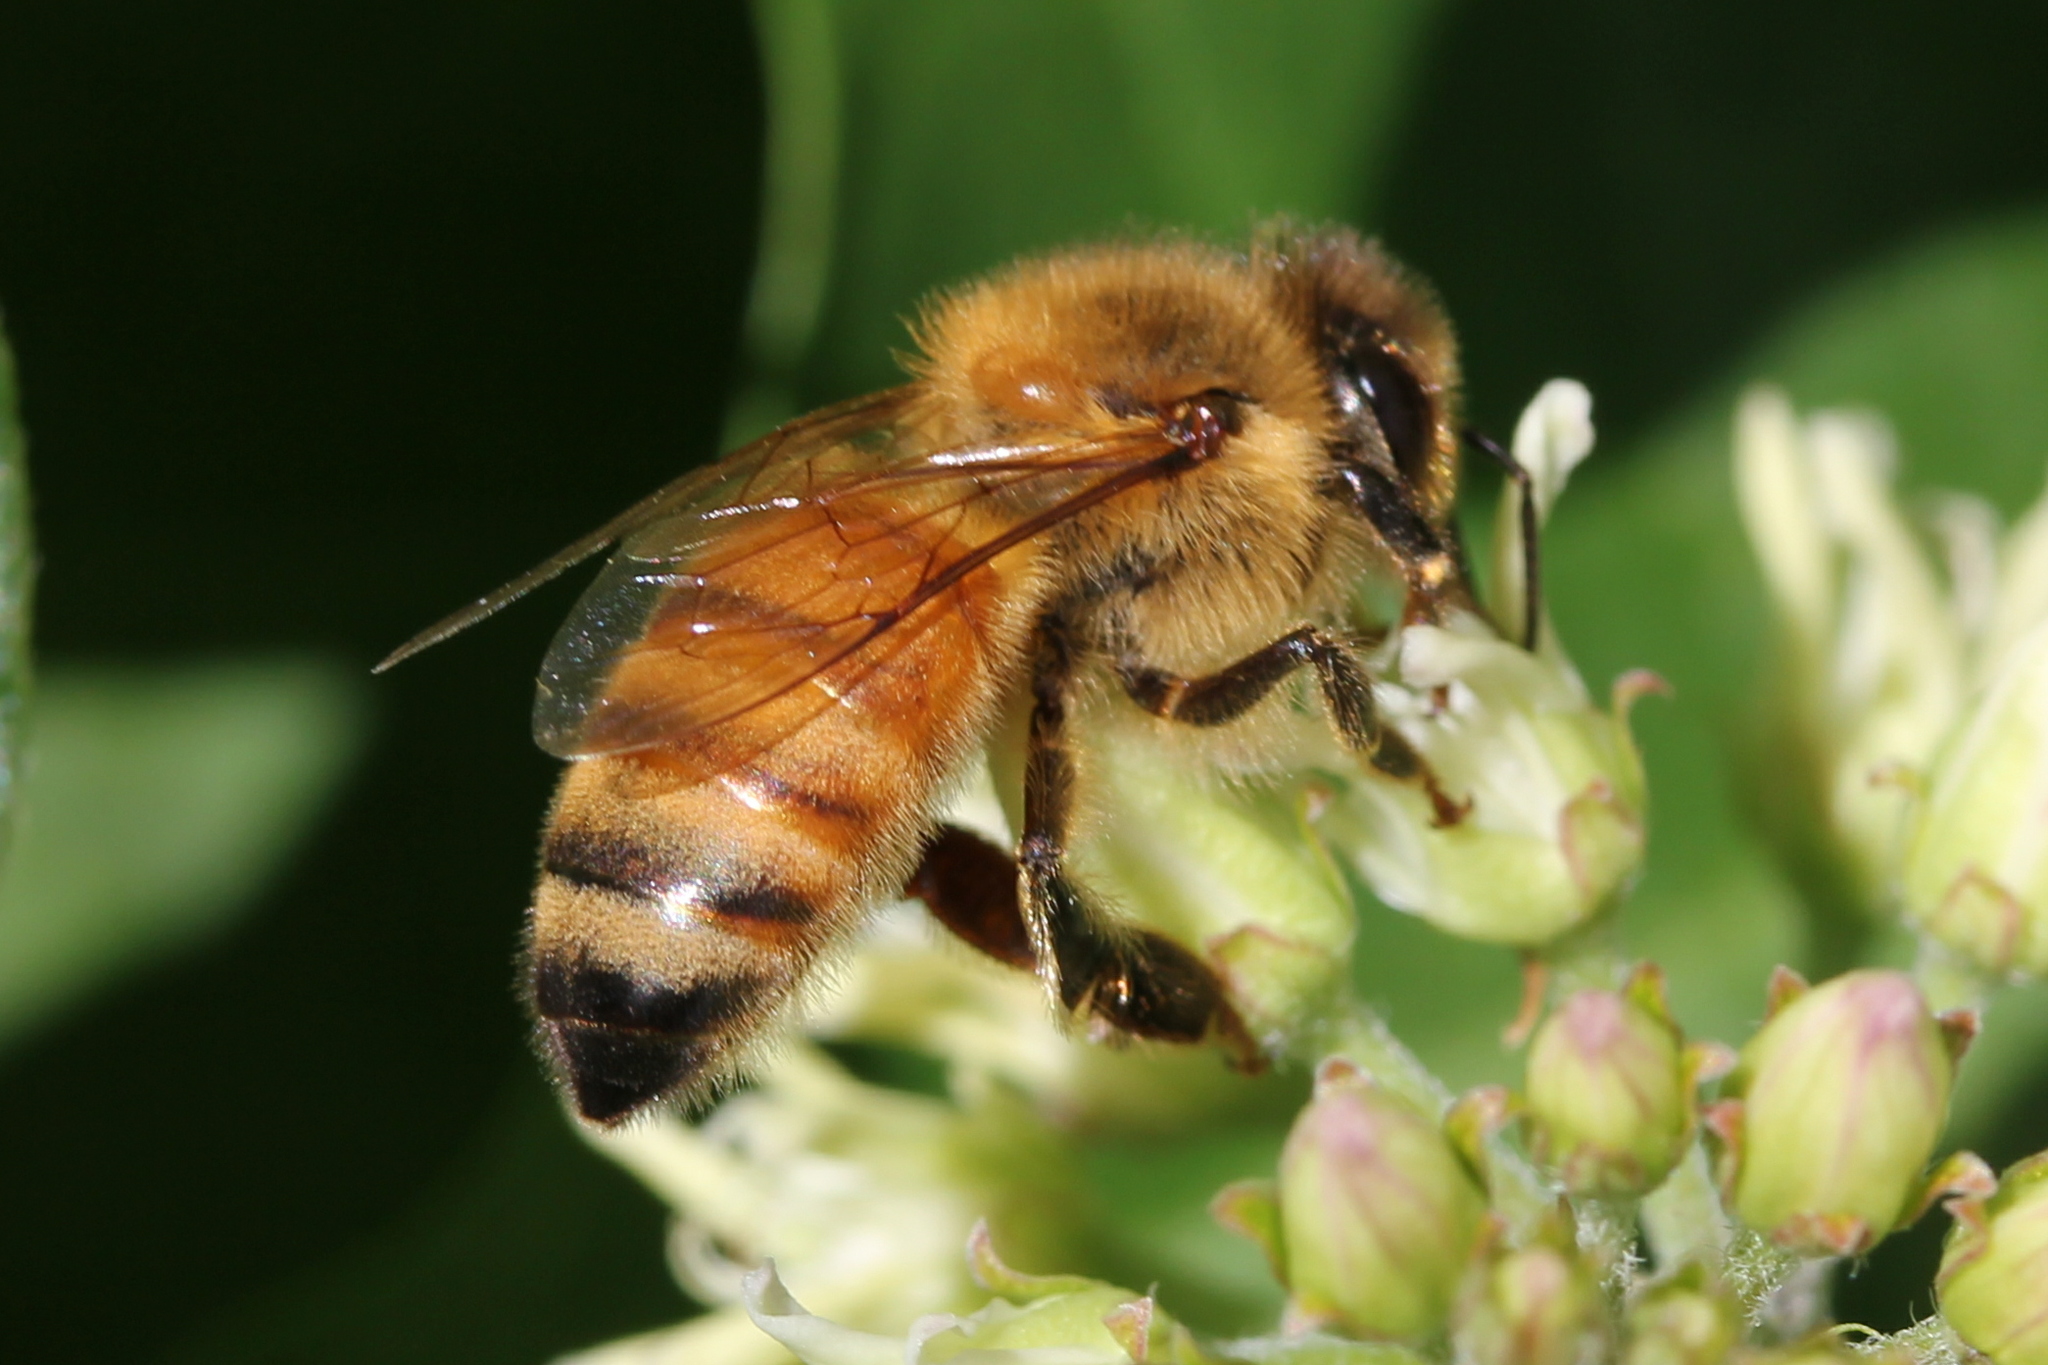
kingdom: Animalia
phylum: Arthropoda
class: Insecta
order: Hymenoptera
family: Apidae
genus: Apis
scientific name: Apis mellifera
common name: Honey bee
